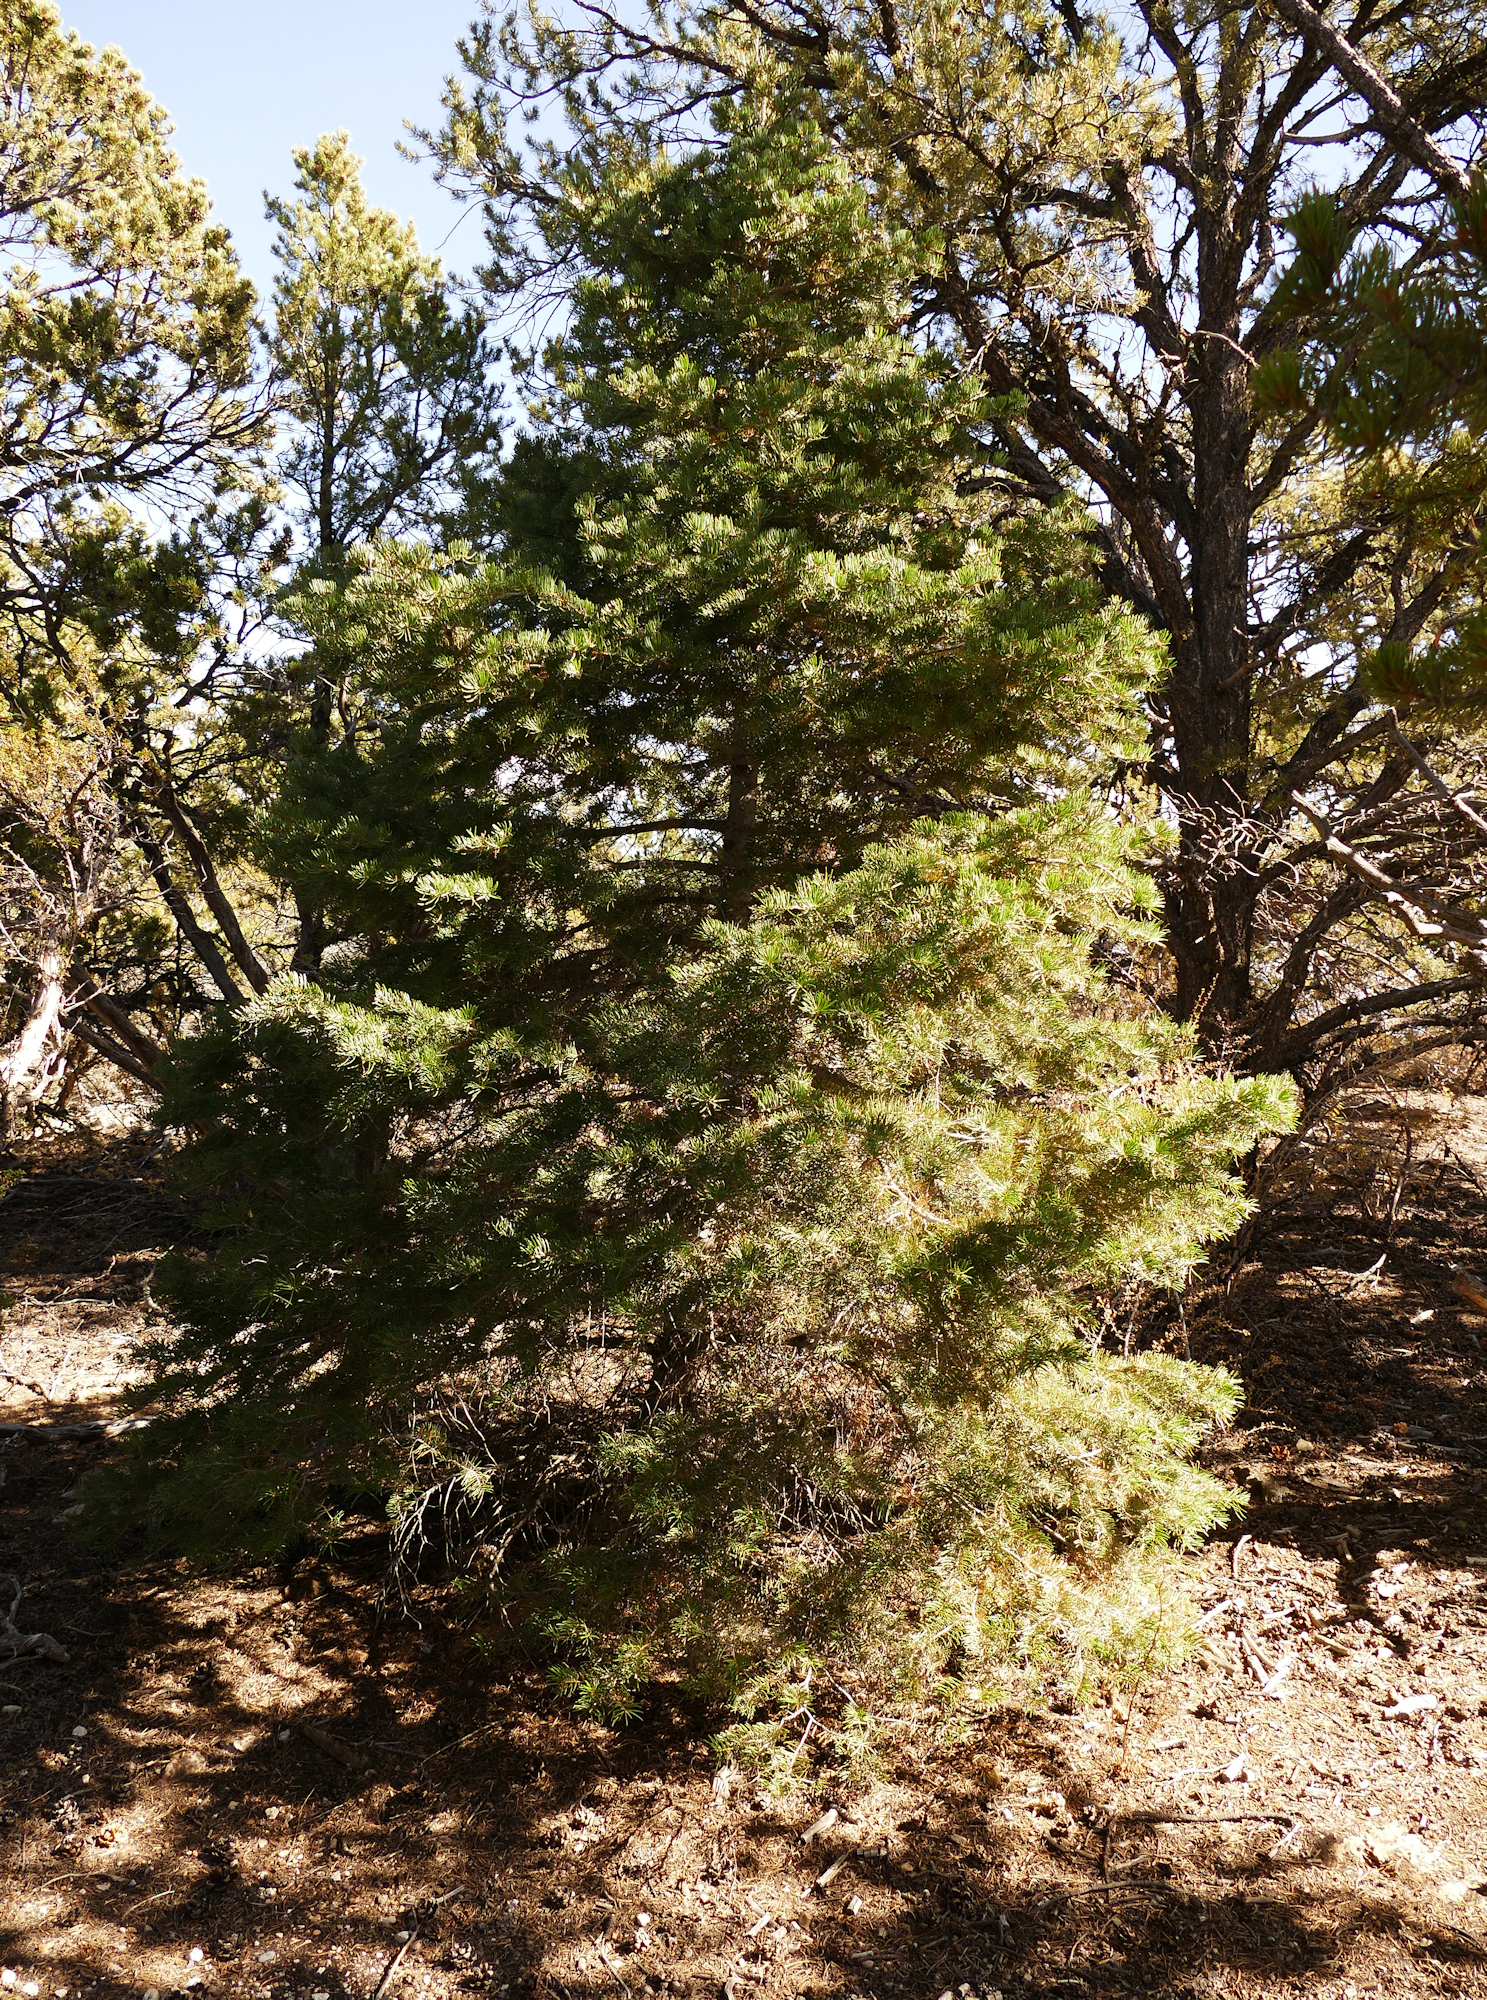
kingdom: Plantae
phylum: Tracheophyta
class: Pinopsida
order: Pinales
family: Pinaceae
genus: Abies
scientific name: Abies concolor
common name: Colorado fir
